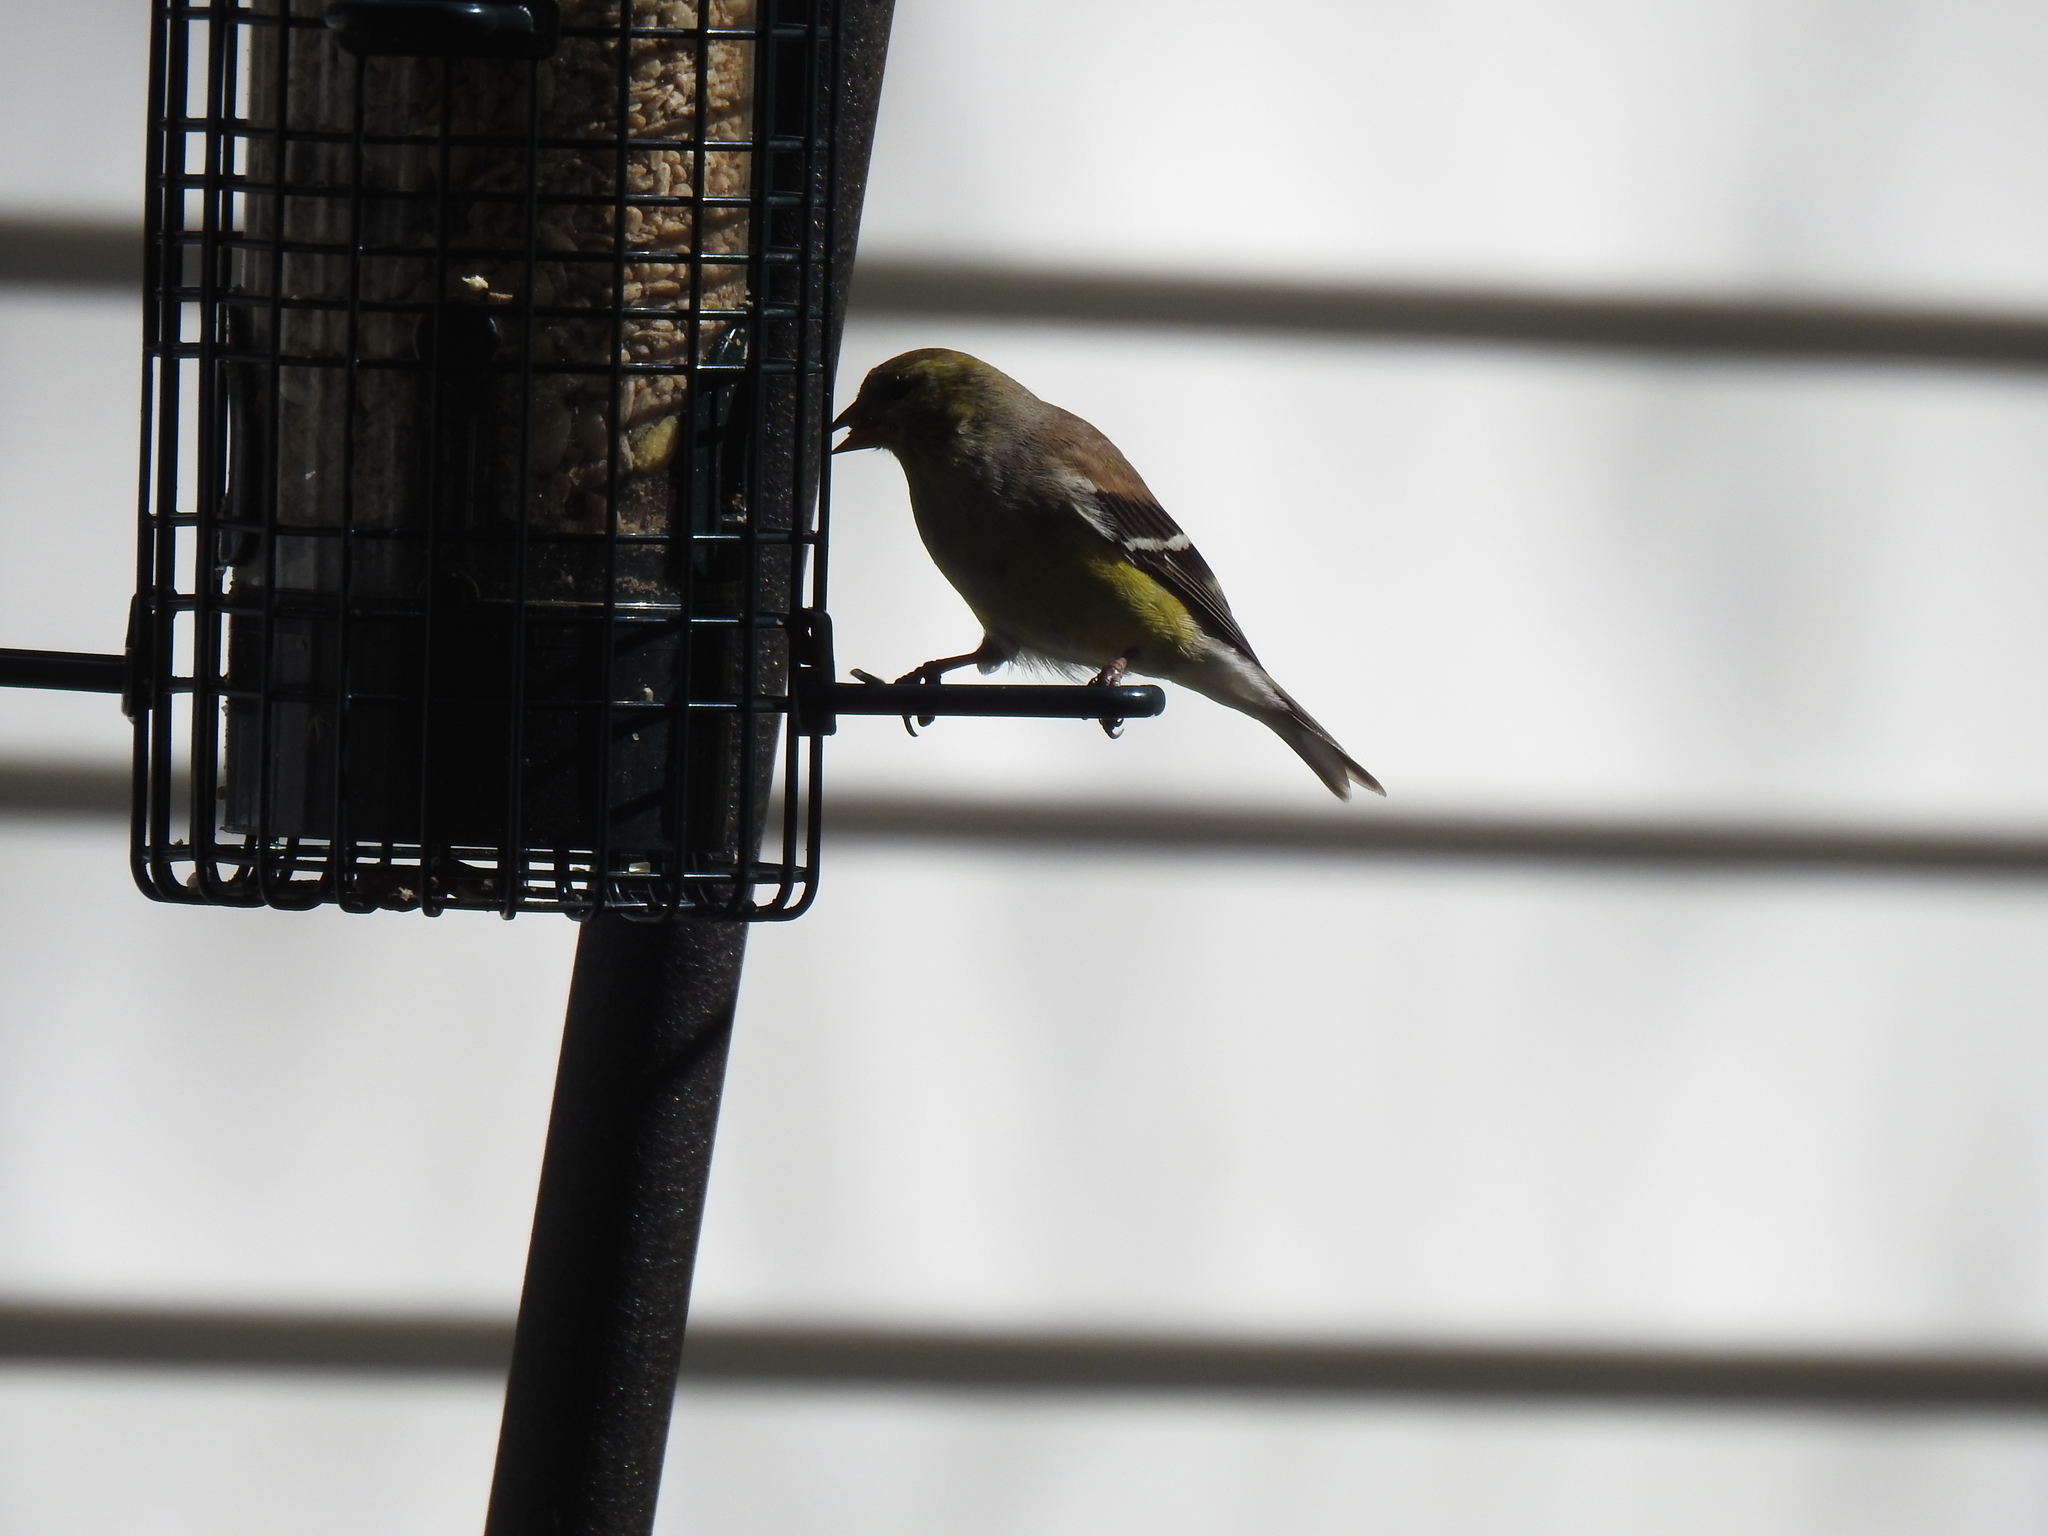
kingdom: Animalia
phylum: Chordata
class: Aves
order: Passeriformes
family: Fringillidae
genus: Spinus
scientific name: Spinus tristis
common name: American goldfinch
